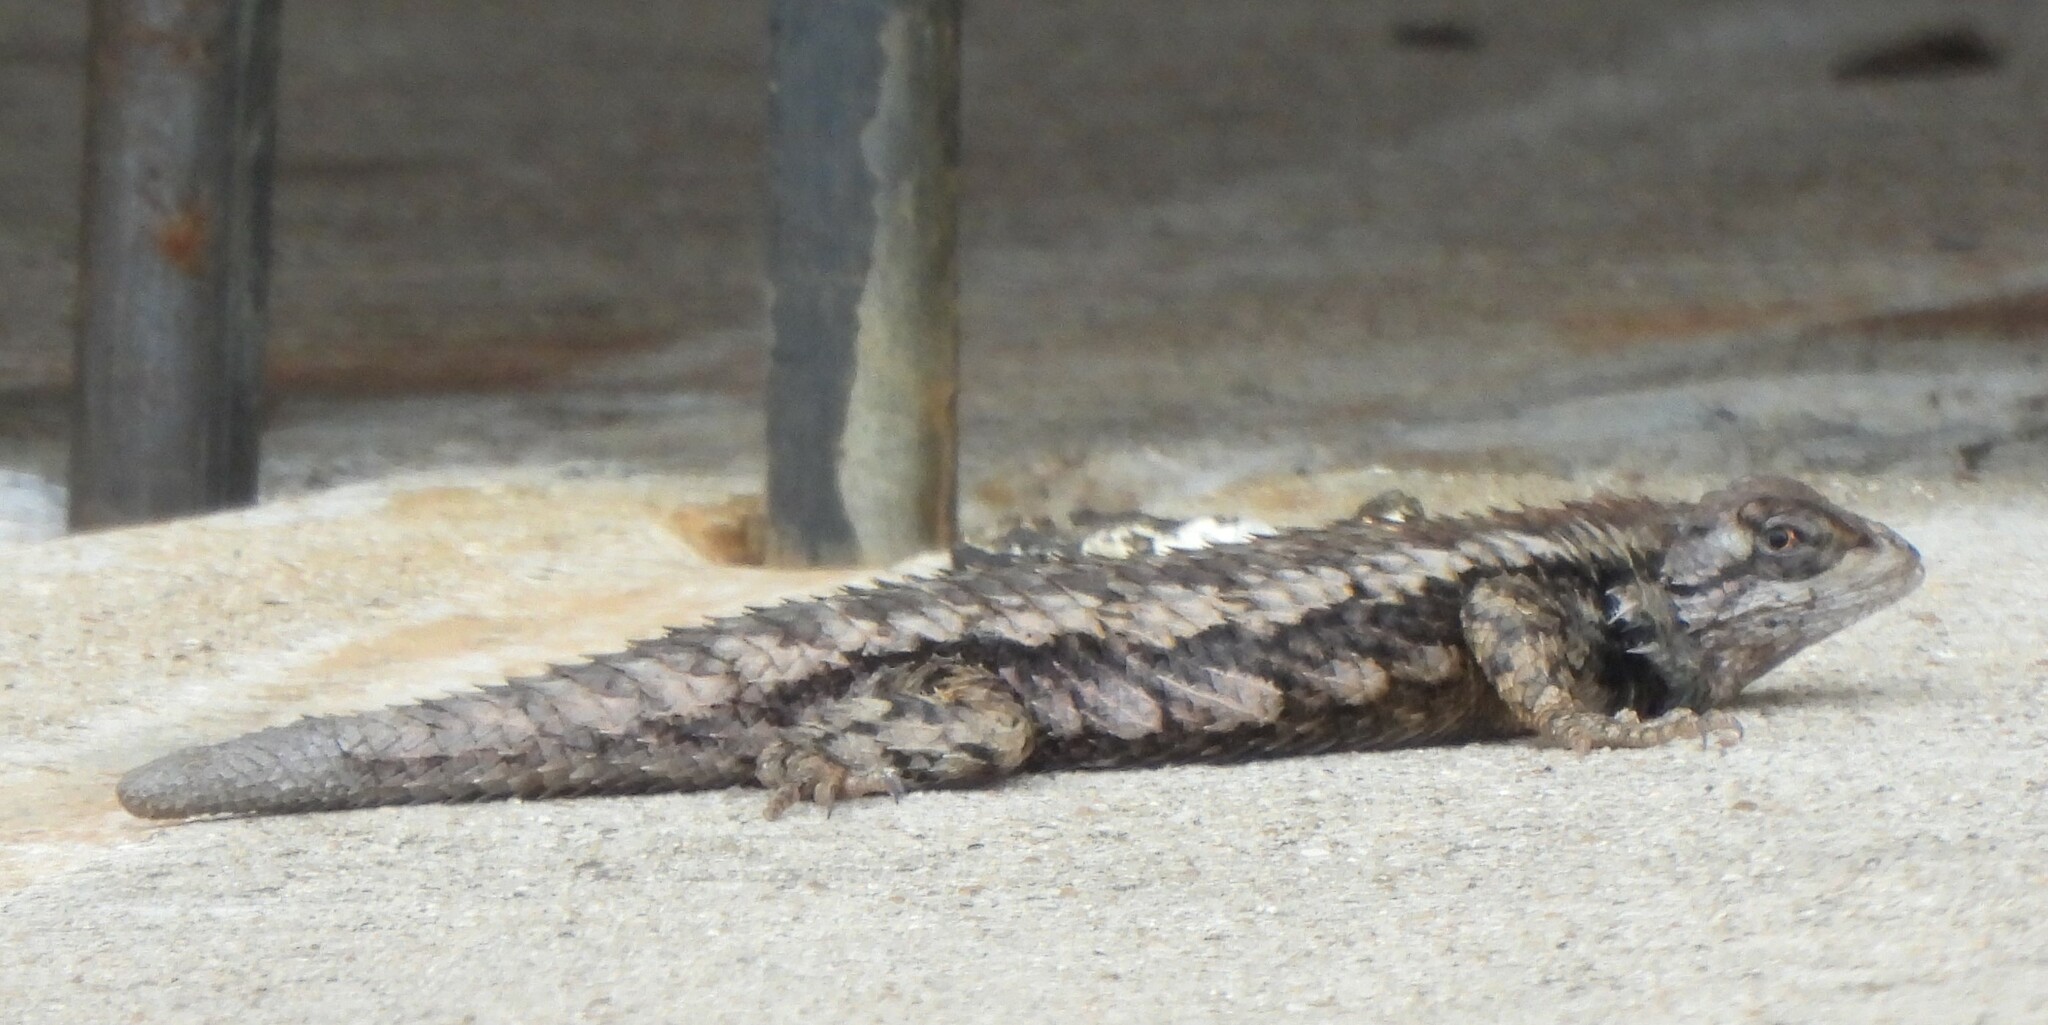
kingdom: Animalia
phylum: Chordata
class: Squamata
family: Phrynosomatidae
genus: Sceloporus
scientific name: Sceloporus olivaceus
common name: Texas spiny lizard
